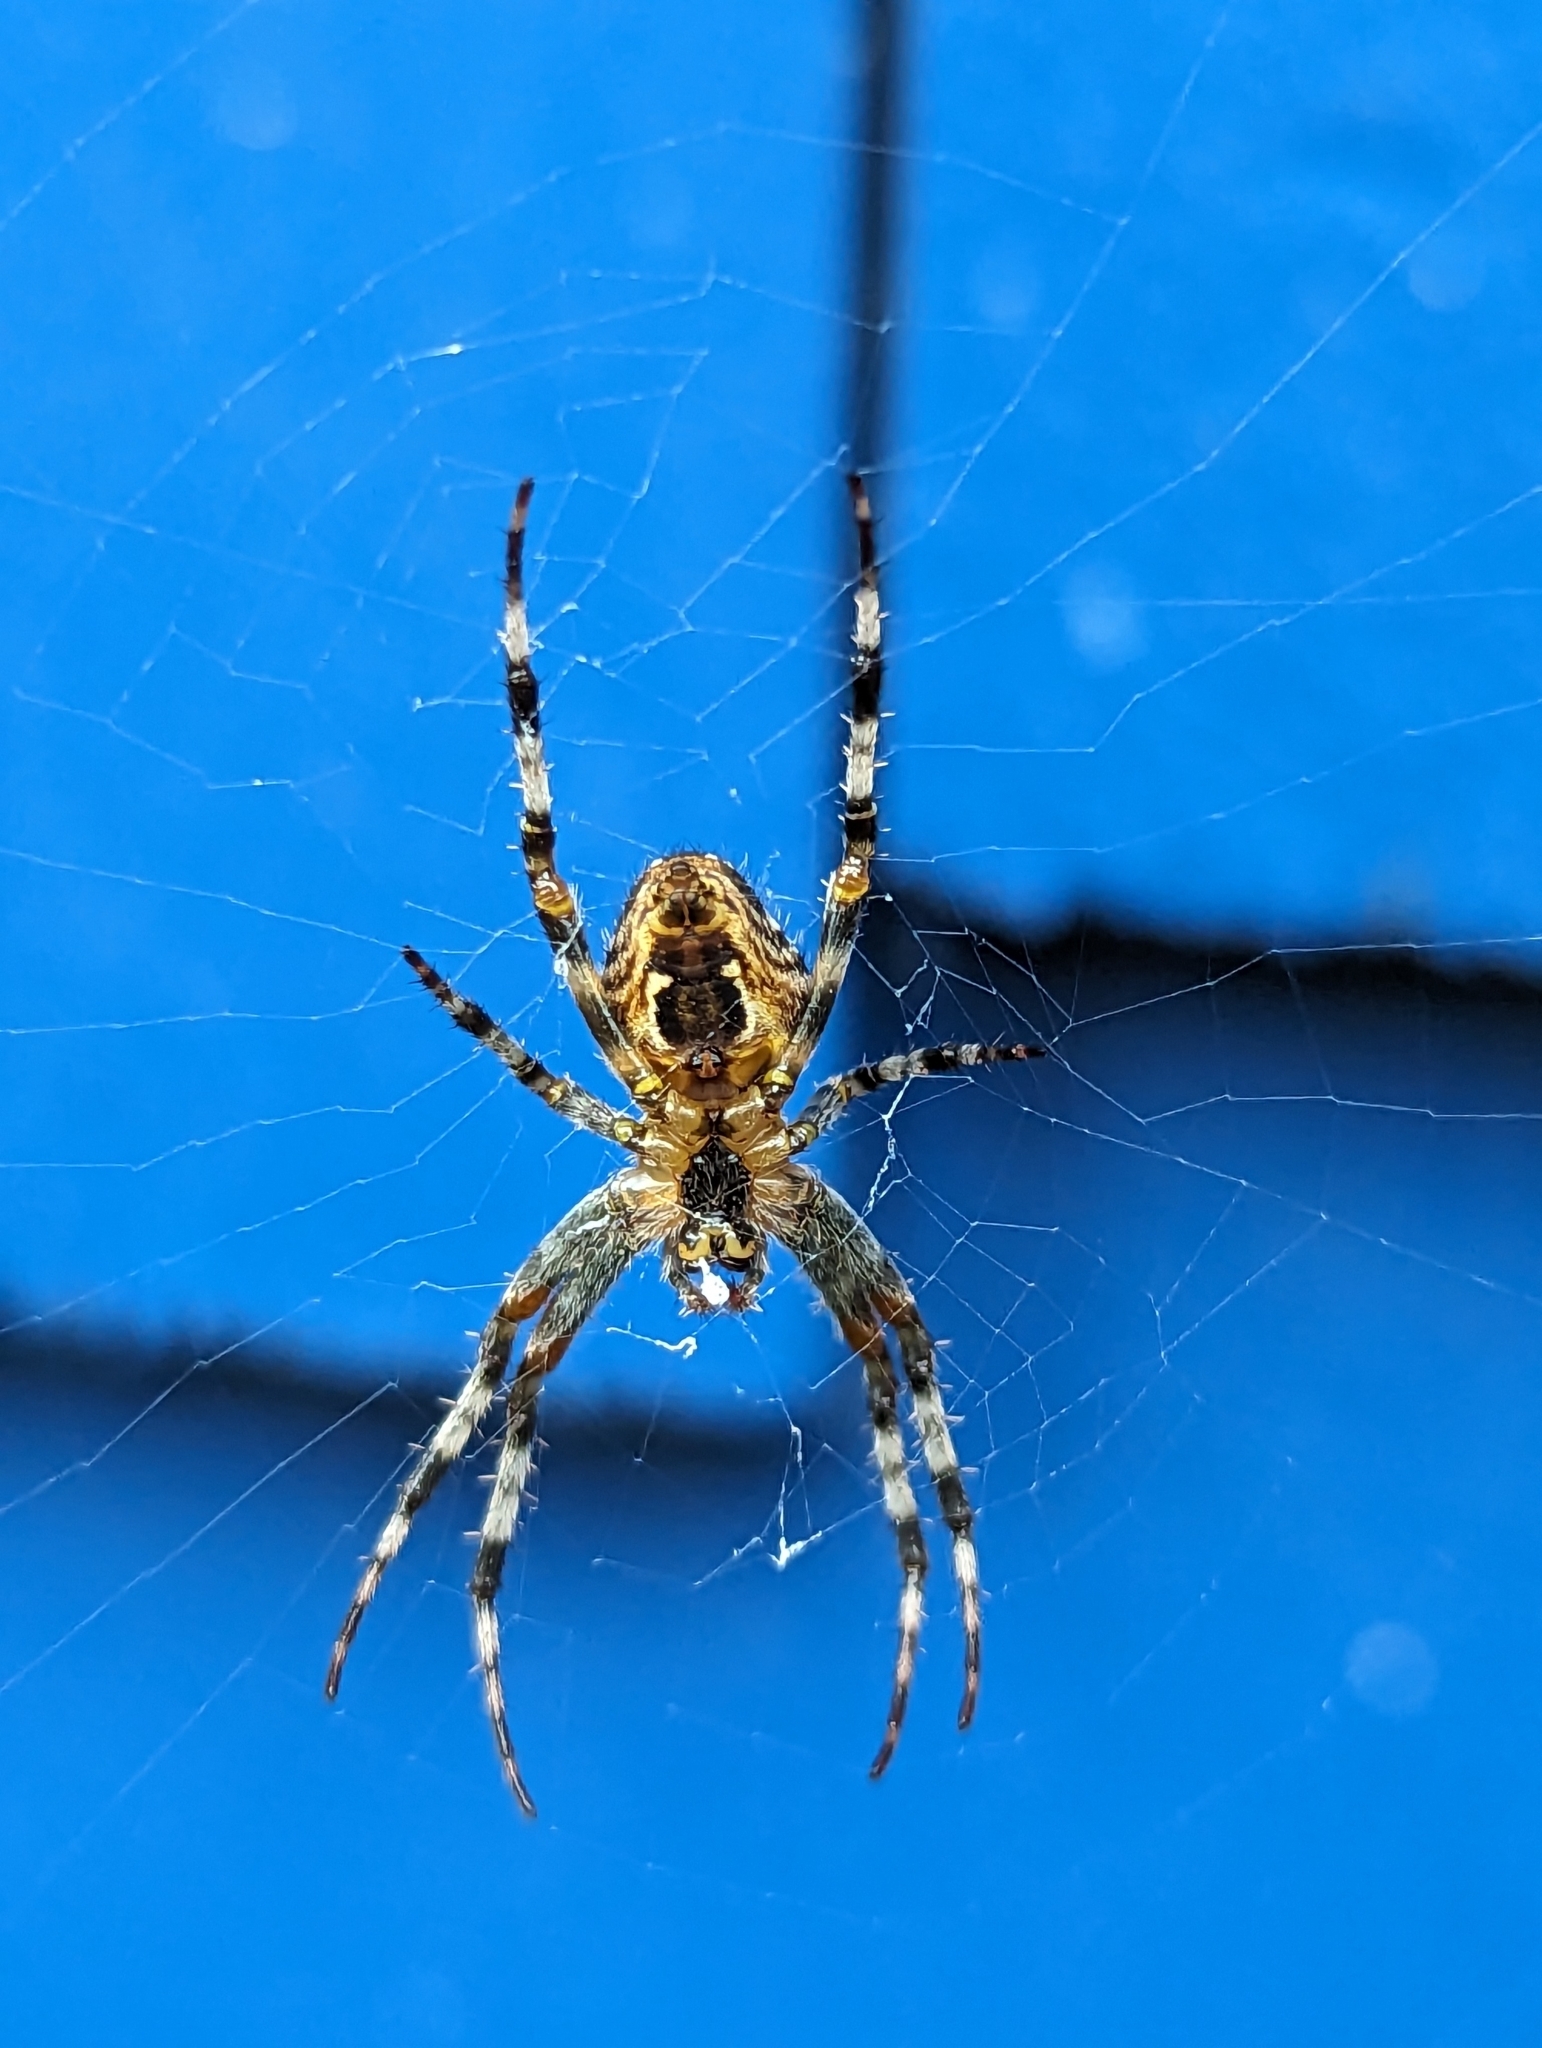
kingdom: Animalia
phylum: Arthropoda
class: Arachnida
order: Araneae
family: Araneidae
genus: Araneus
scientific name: Araneus diadematus
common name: Cross orbweaver
